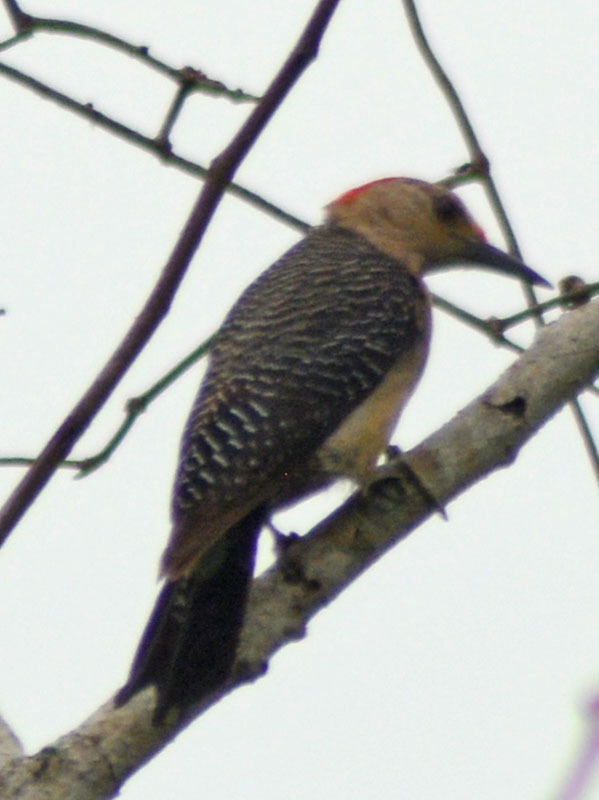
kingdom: Animalia
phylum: Chordata
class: Aves
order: Piciformes
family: Picidae
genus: Melanerpes
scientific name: Melanerpes aurifrons
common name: Golden-fronted woodpecker
